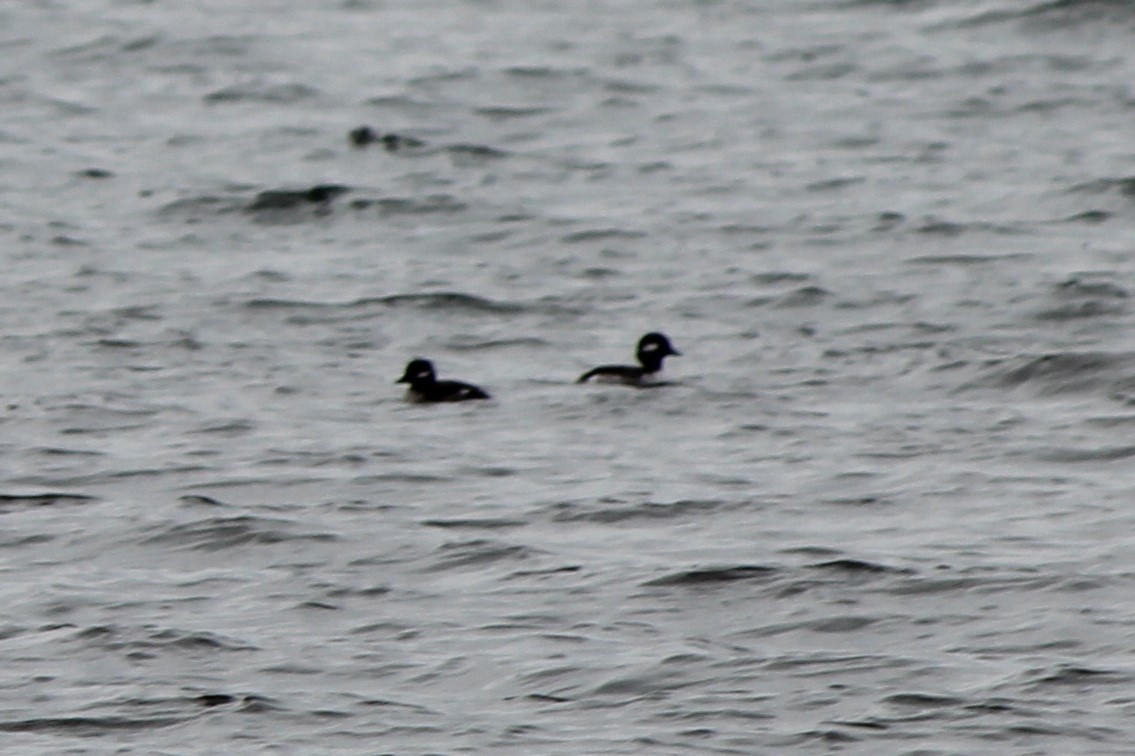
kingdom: Animalia
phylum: Chordata
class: Aves
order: Anseriformes
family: Anatidae
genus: Bucephala
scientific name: Bucephala albeola
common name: Bufflehead
